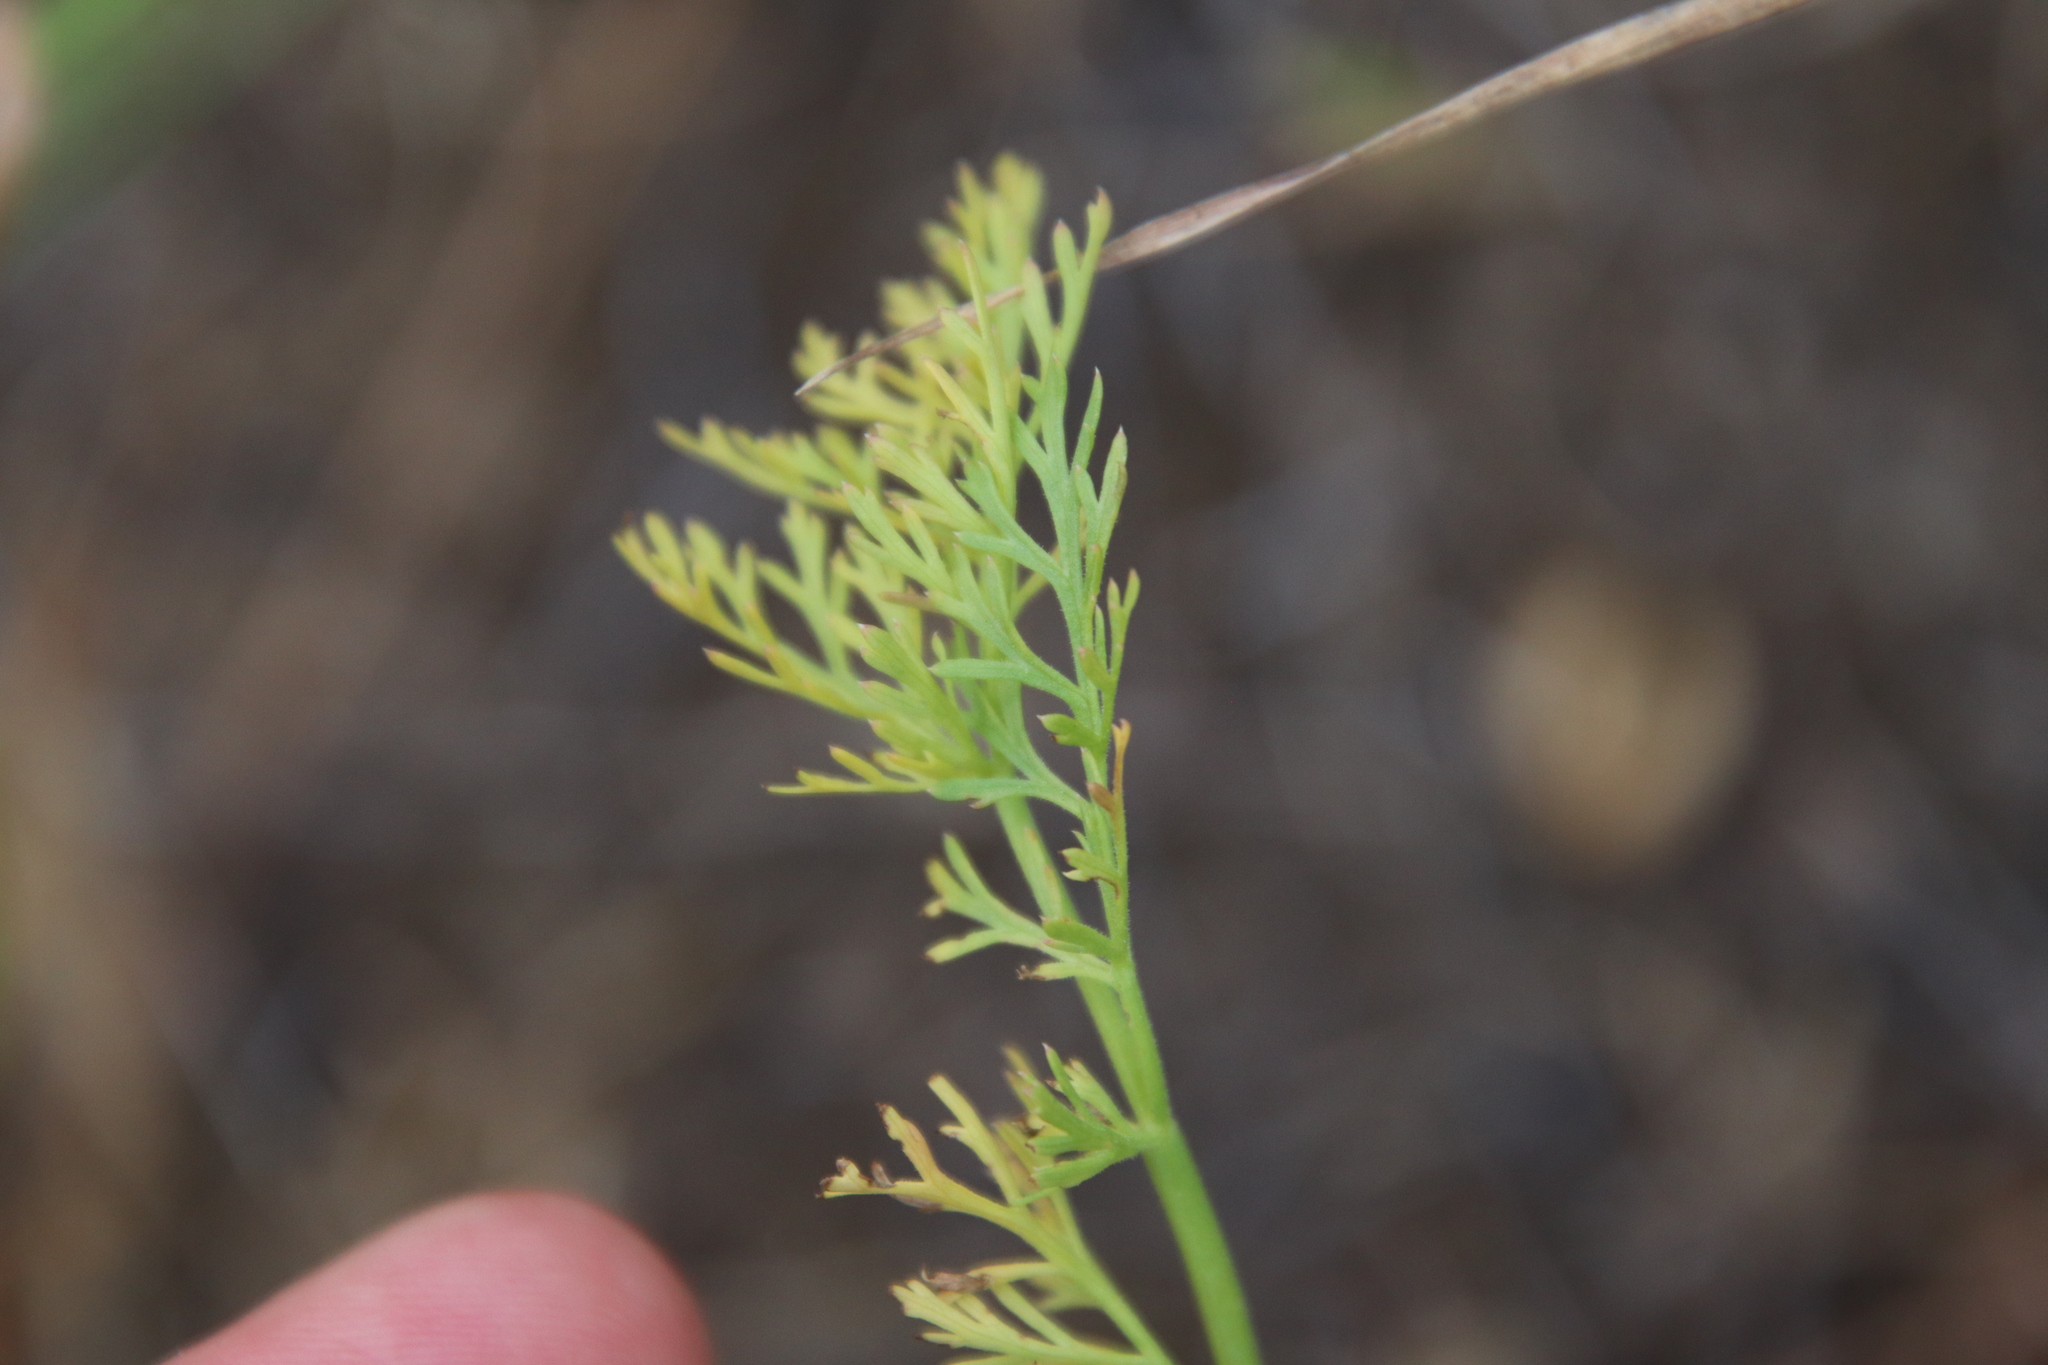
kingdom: Plantae
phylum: Tracheophyta
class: Magnoliopsida
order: Apiales
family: Apiaceae
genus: Lomatium
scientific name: Lomatium utriculatum
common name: Fine-leaf desert-parsley
